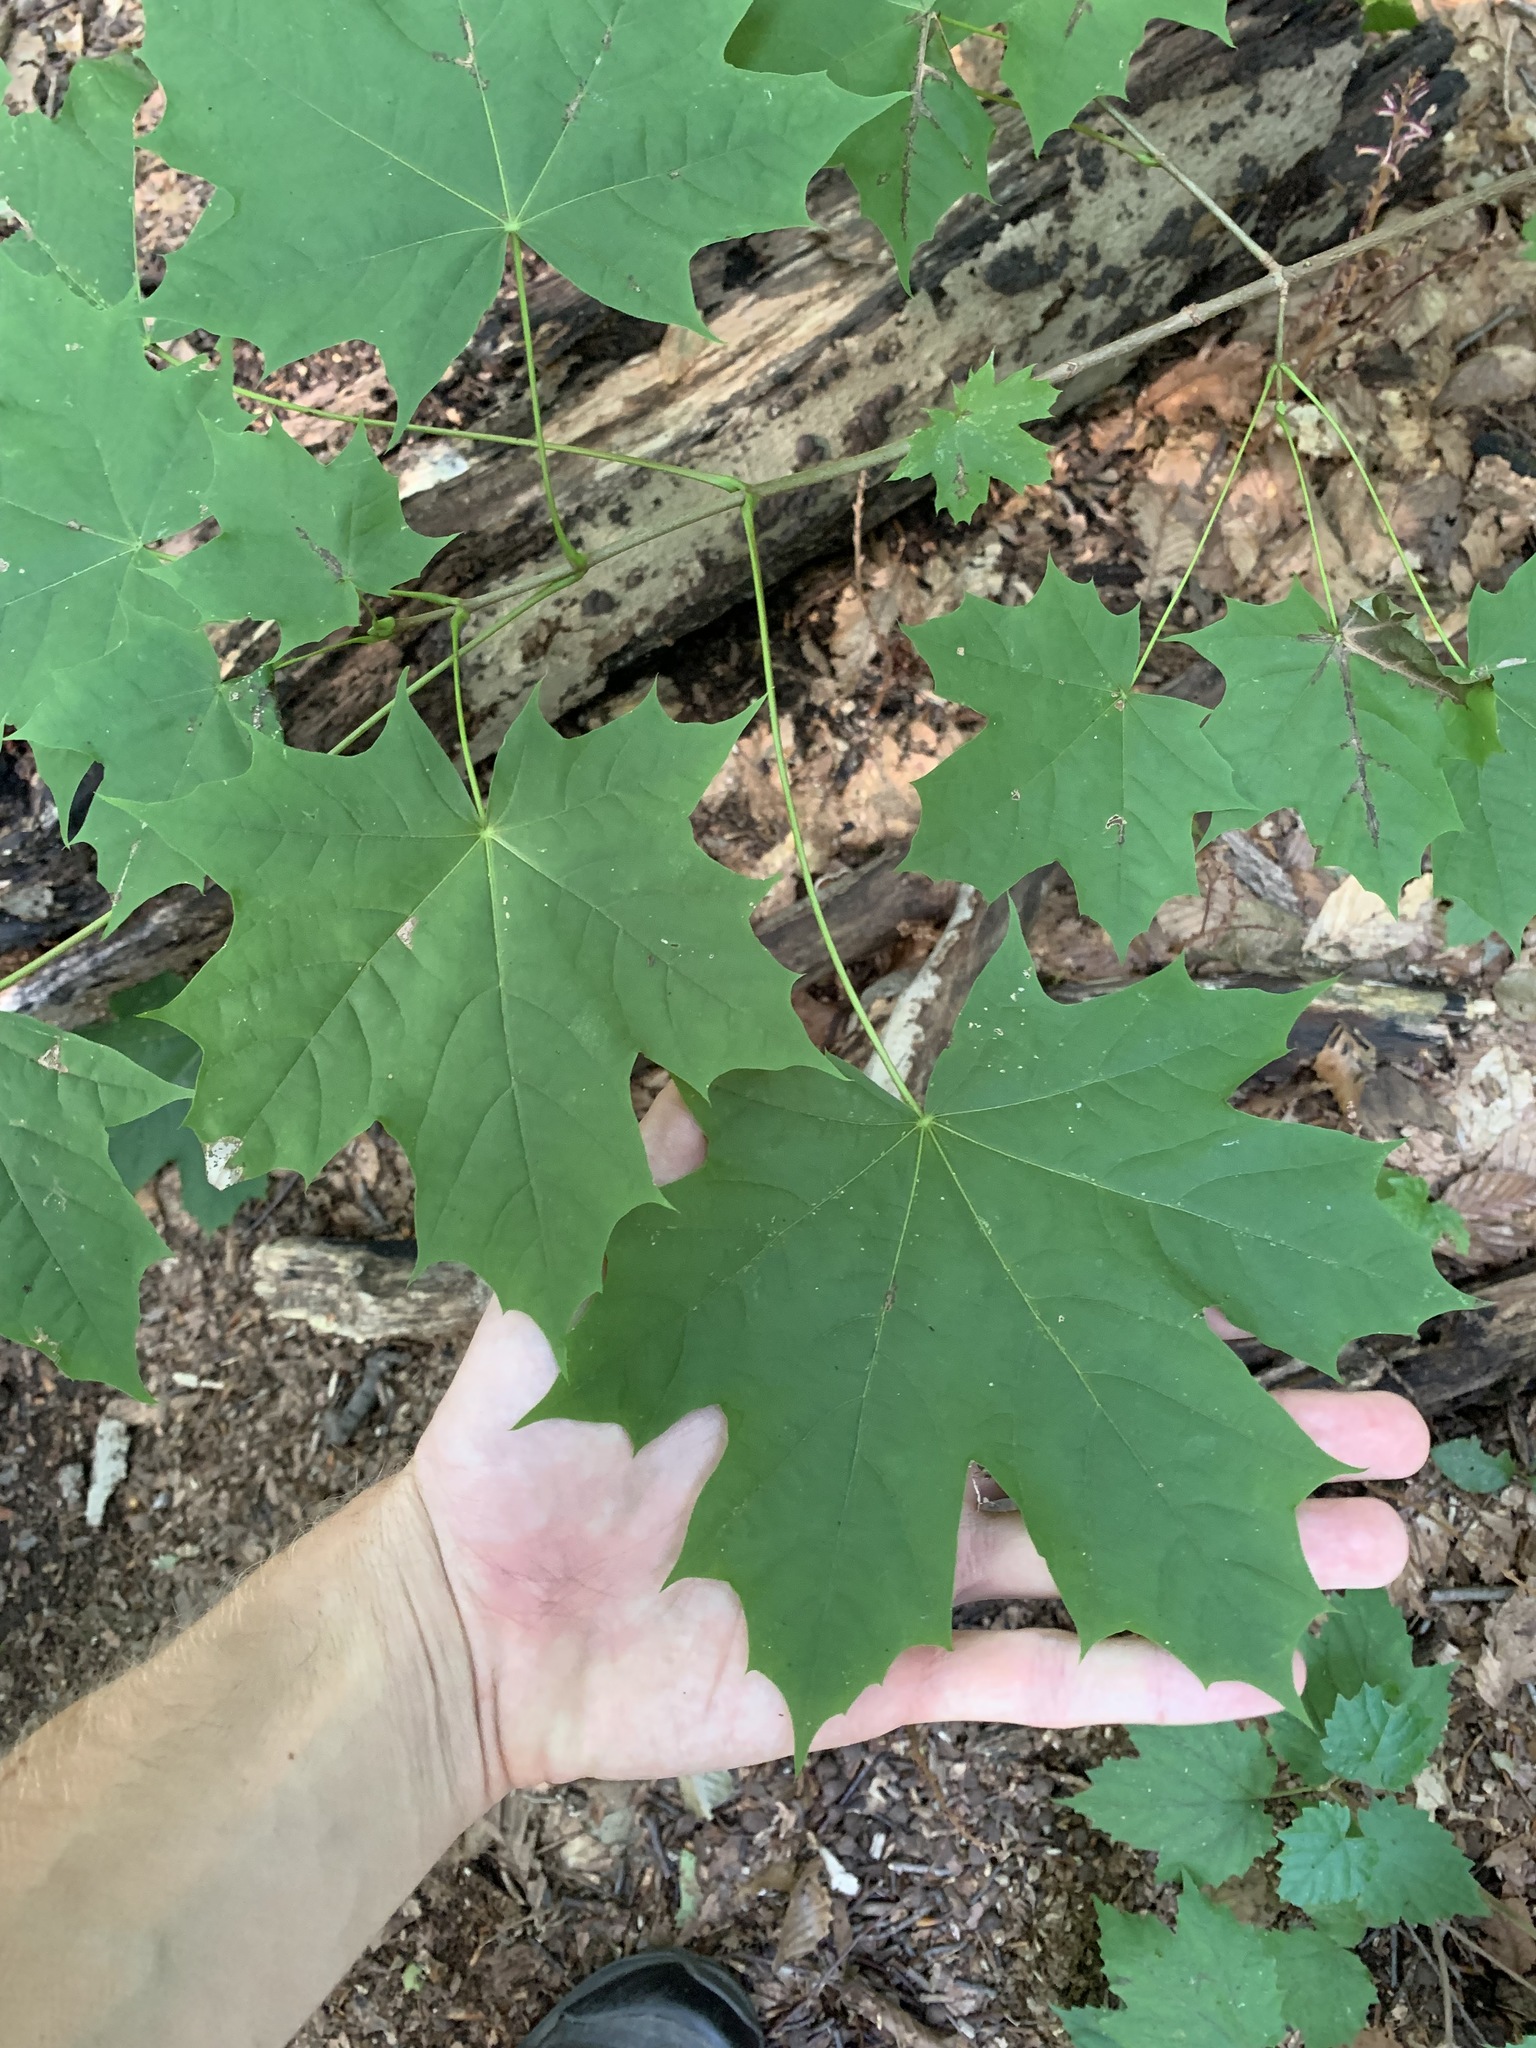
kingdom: Plantae
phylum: Tracheophyta
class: Magnoliopsida
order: Sapindales
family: Sapindaceae
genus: Acer
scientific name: Acer platanoides
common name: Norway maple
